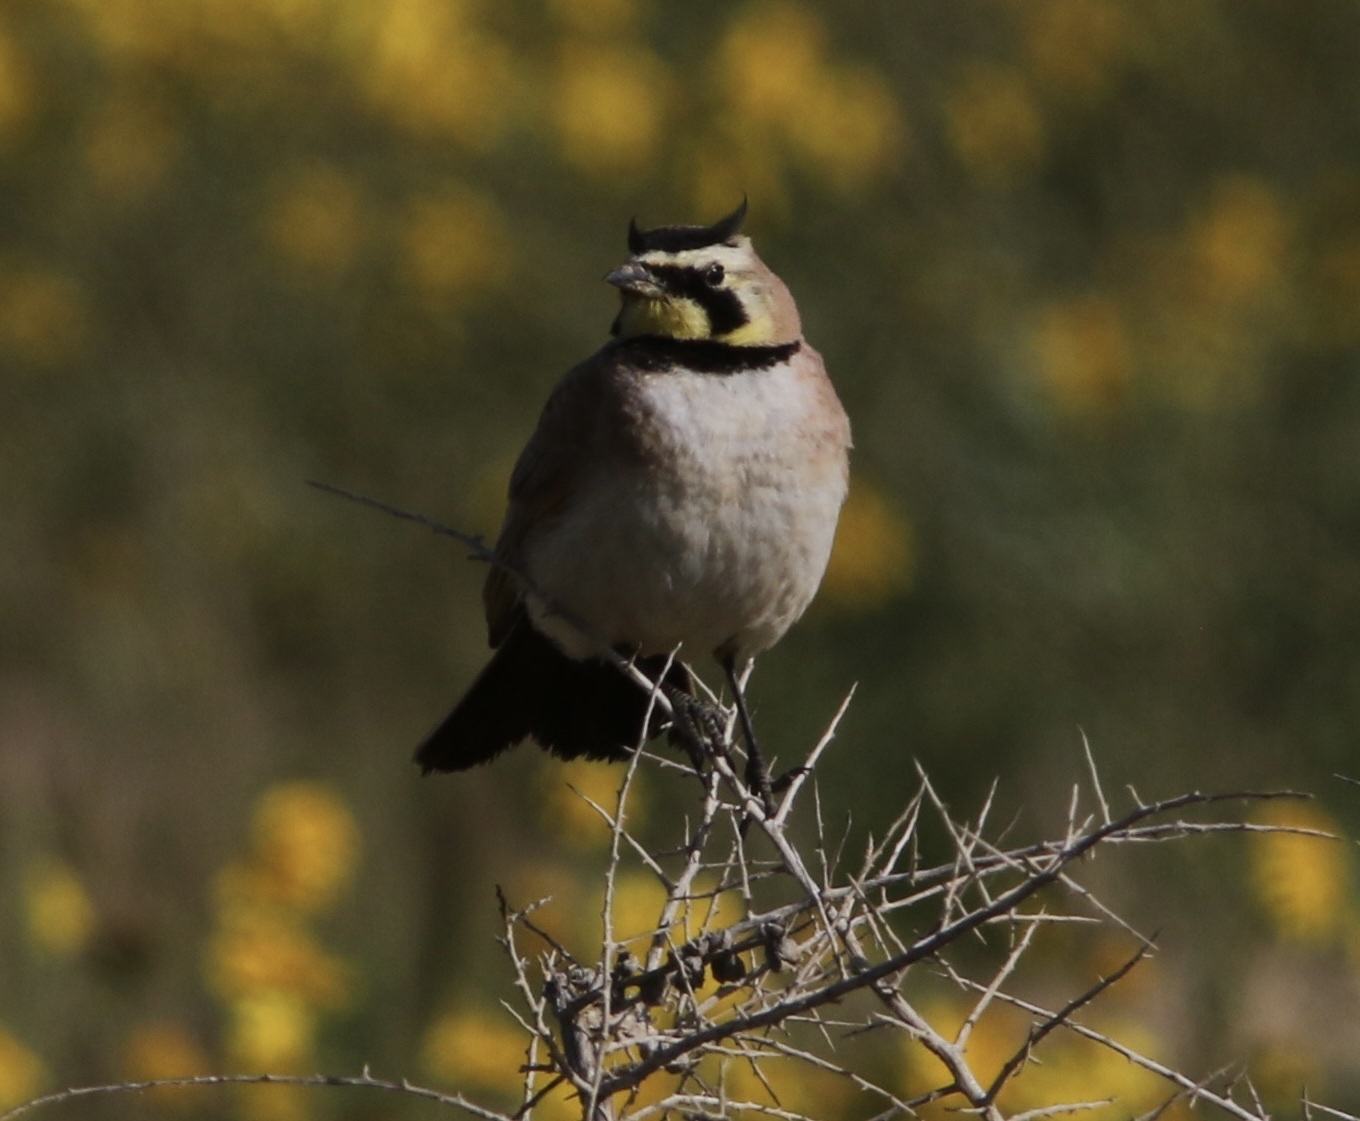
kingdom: Animalia
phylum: Chordata
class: Aves
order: Passeriformes
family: Alaudidae
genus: Eremophila
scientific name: Eremophila alpestris
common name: Horned lark
